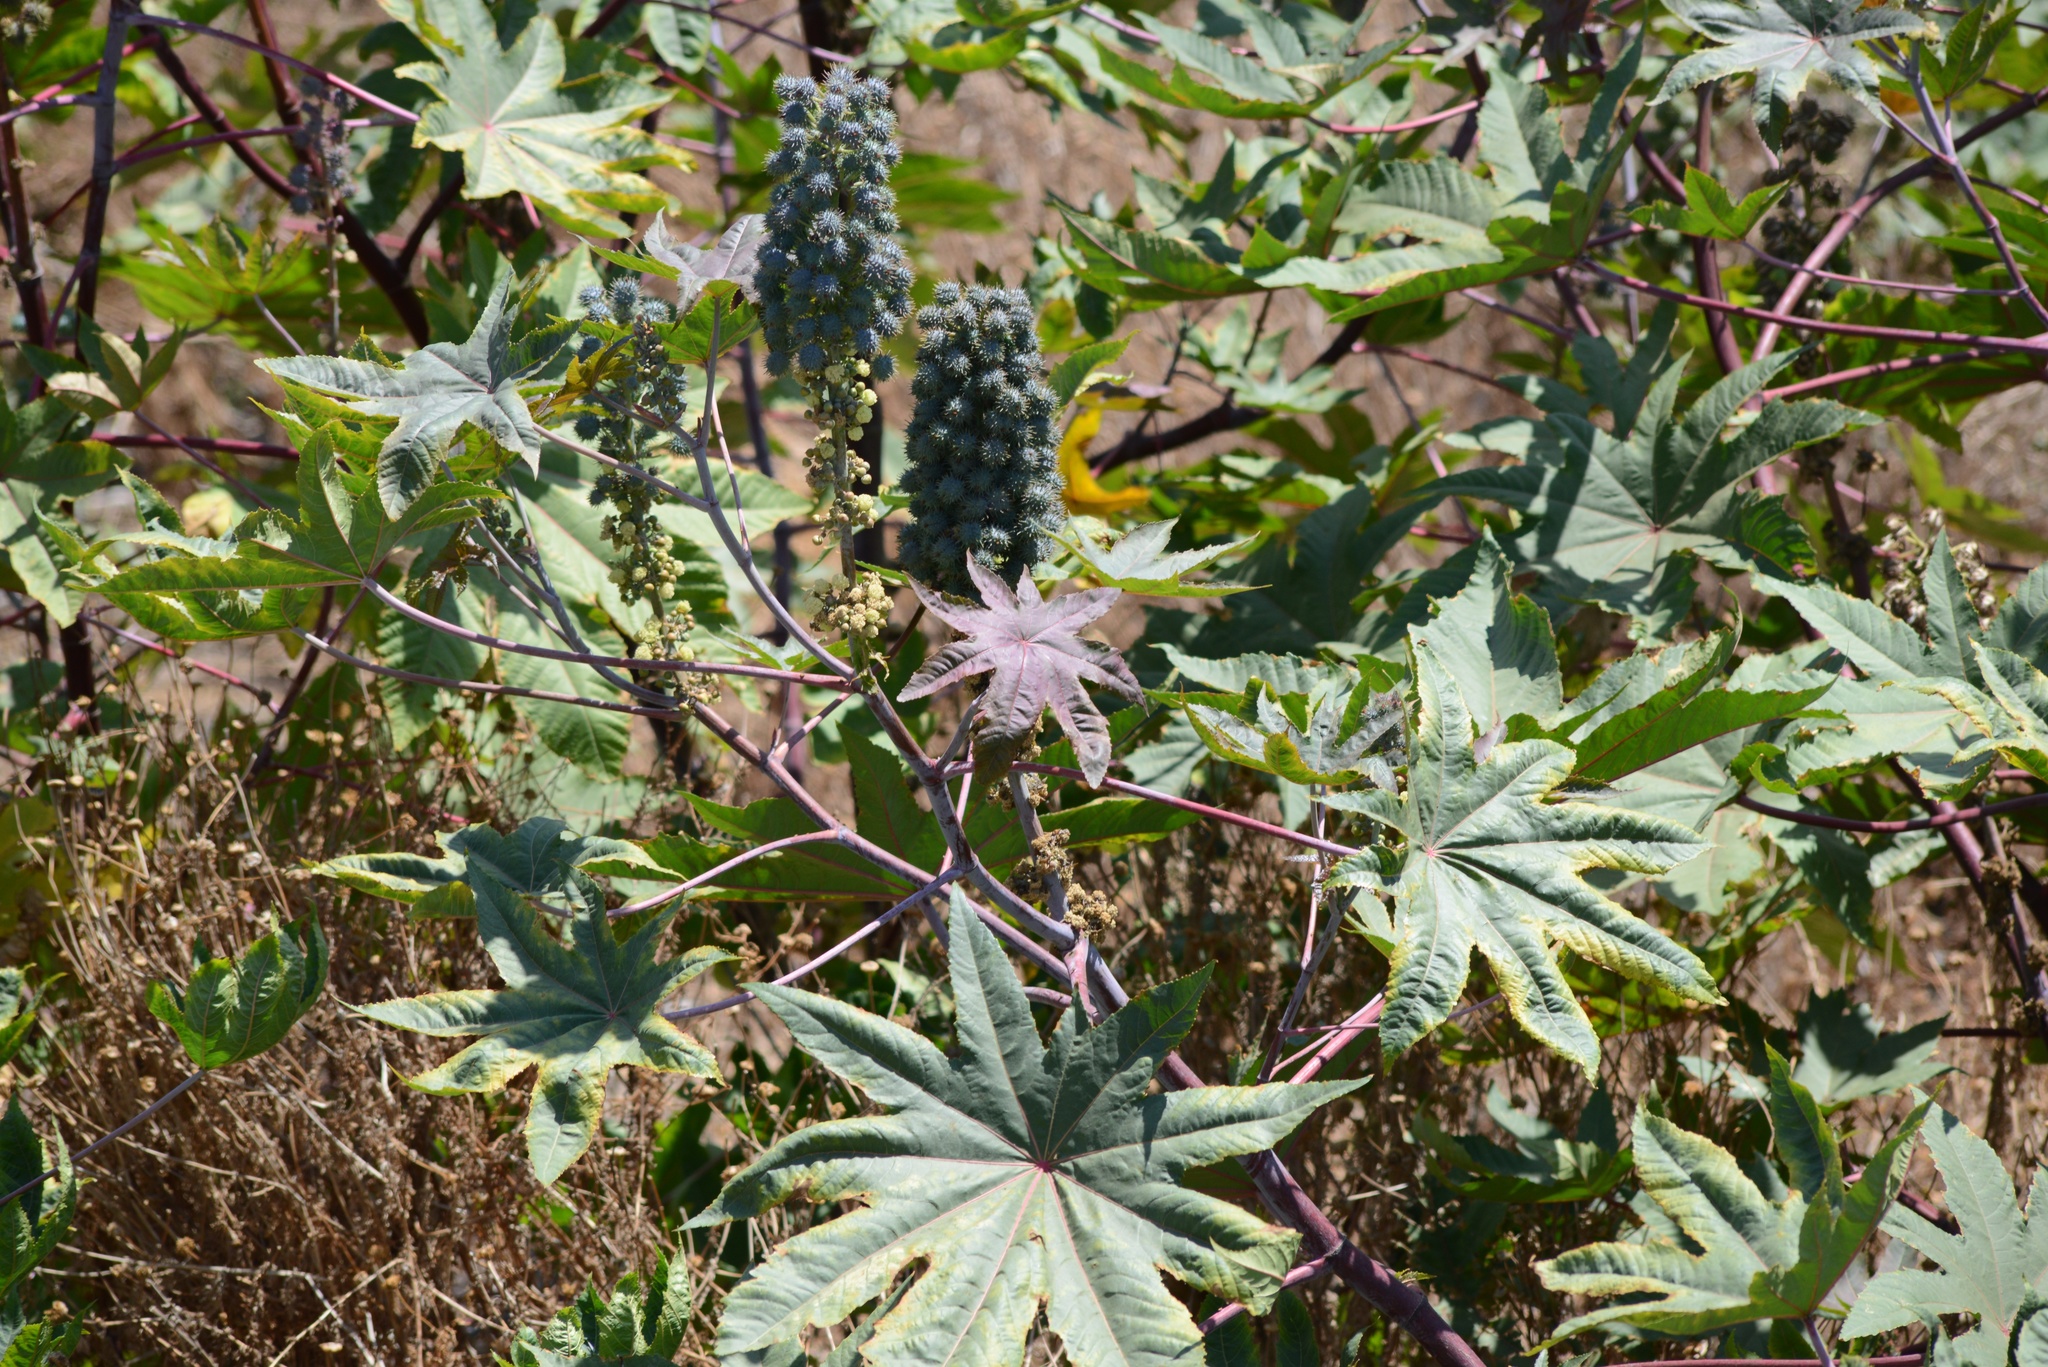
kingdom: Plantae
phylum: Tracheophyta
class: Magnoliopsida
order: Malpighiales
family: Euphorbiaceae
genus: Ricinus
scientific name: Ricinus communis
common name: Castor-oil-plant
